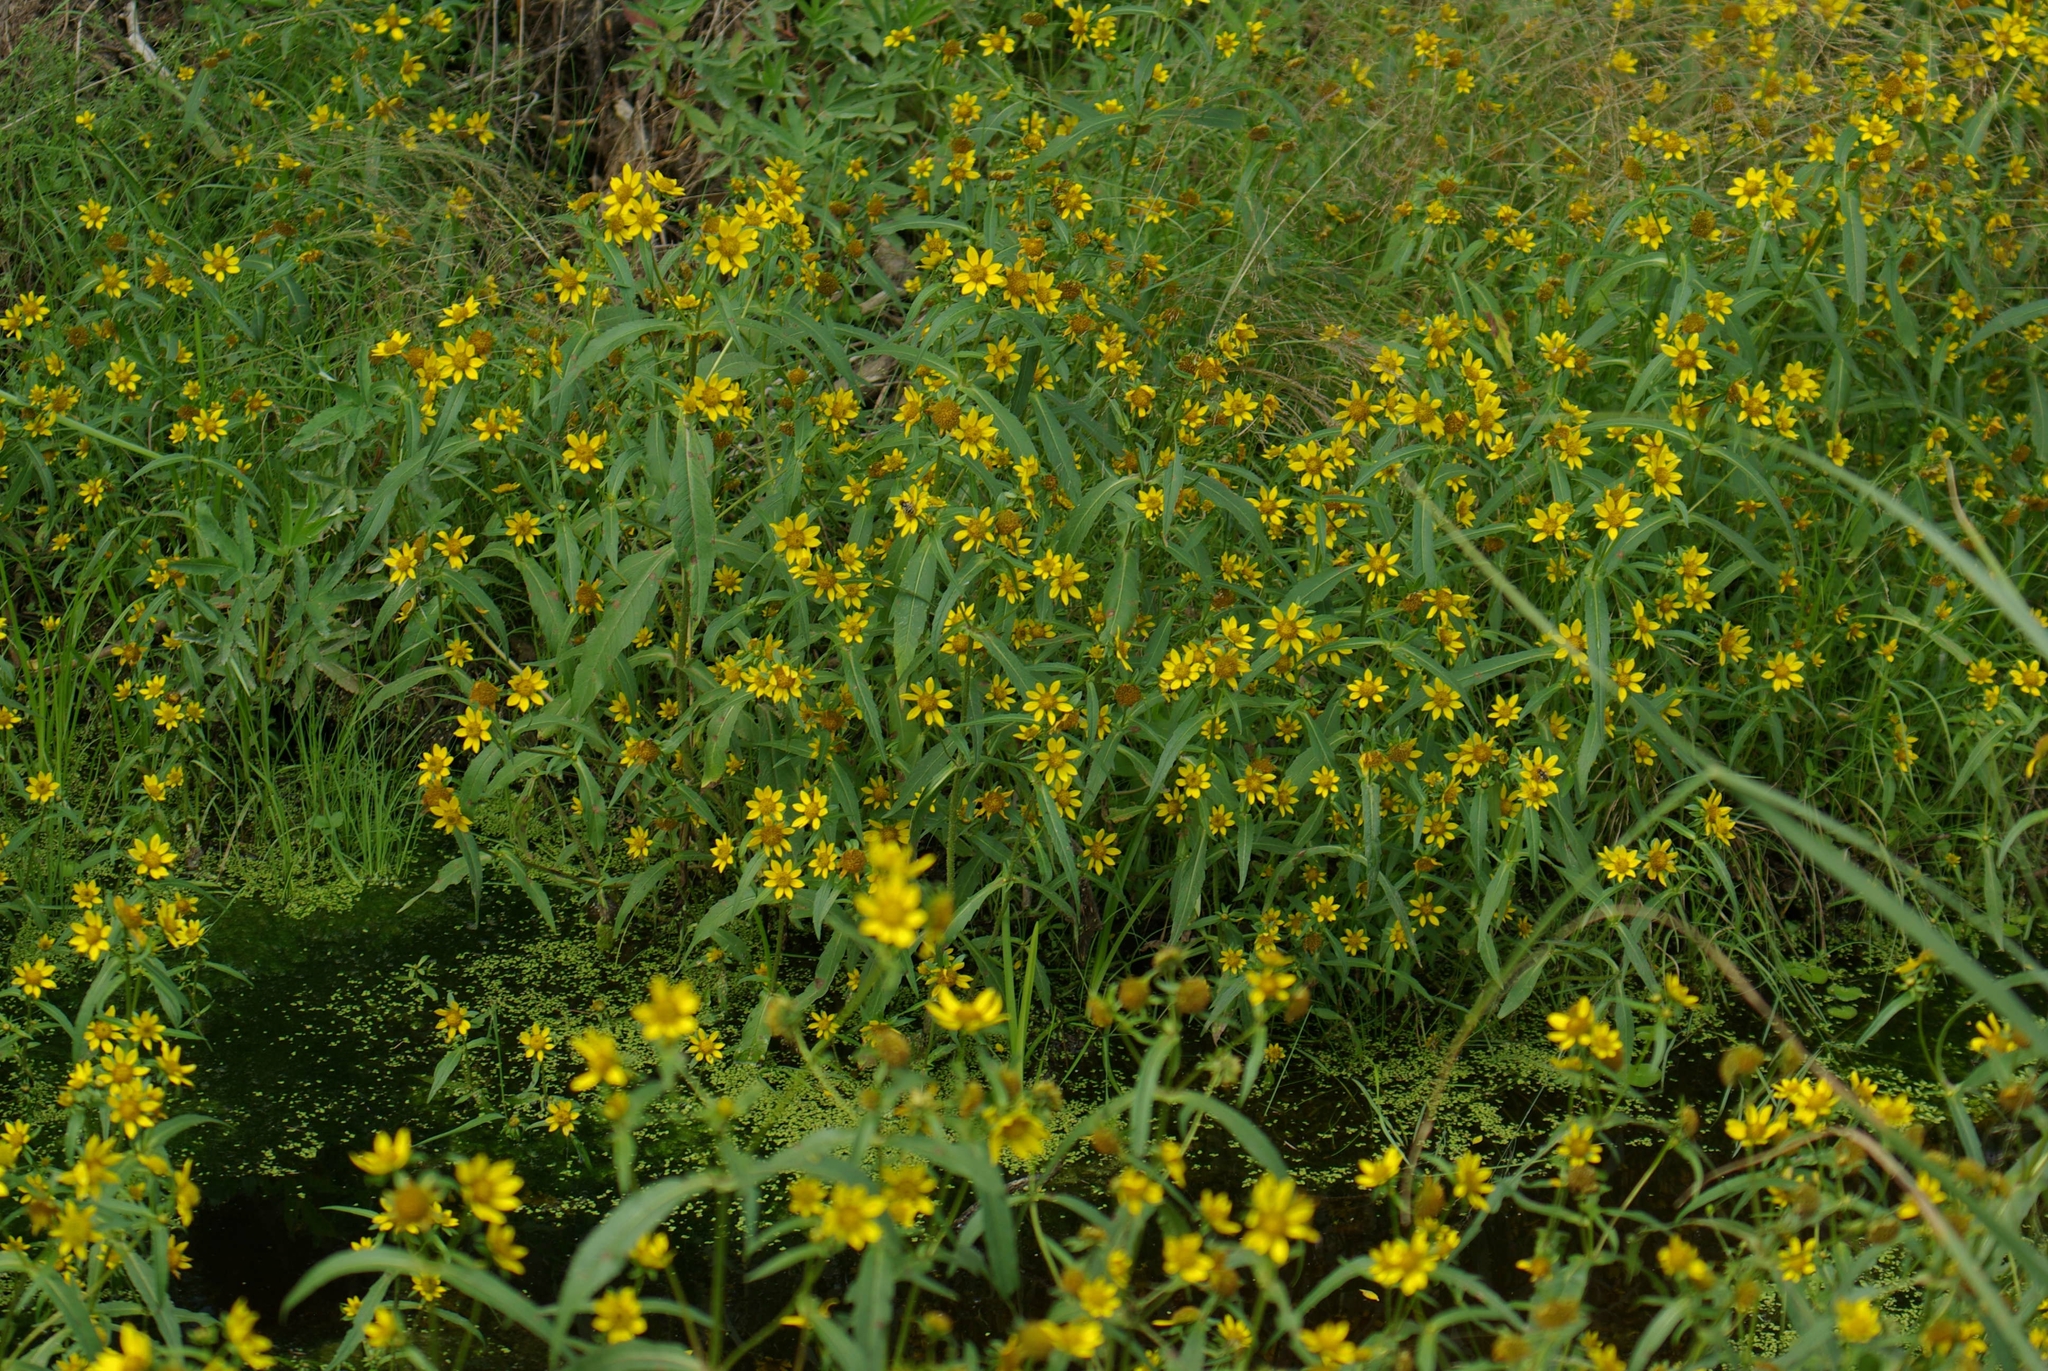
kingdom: Plantae
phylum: Tracheophyta
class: Magnoliopsida
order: Asterales
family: Asteraceae
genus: Bidens
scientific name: Bidens cernua
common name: Nodding bur-marigold
